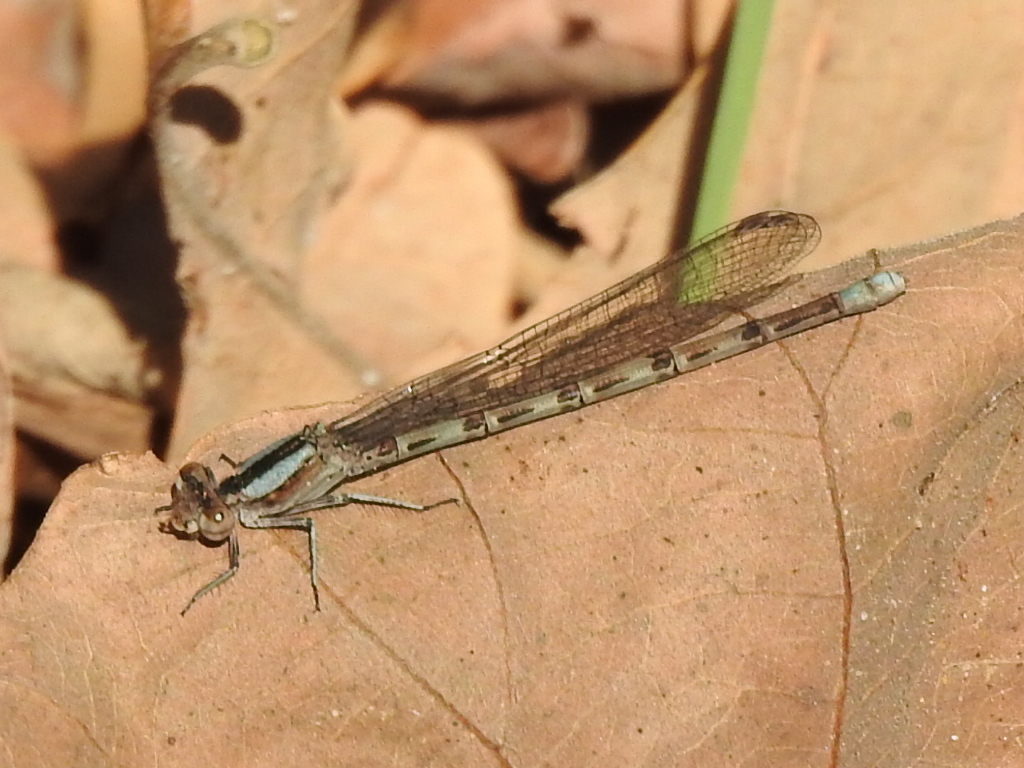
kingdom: Animalia
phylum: Arthropoda
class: Insecta
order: Odonata
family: Coenagrionidae
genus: Argia
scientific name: Argia immunda
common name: Kiowa dancer
